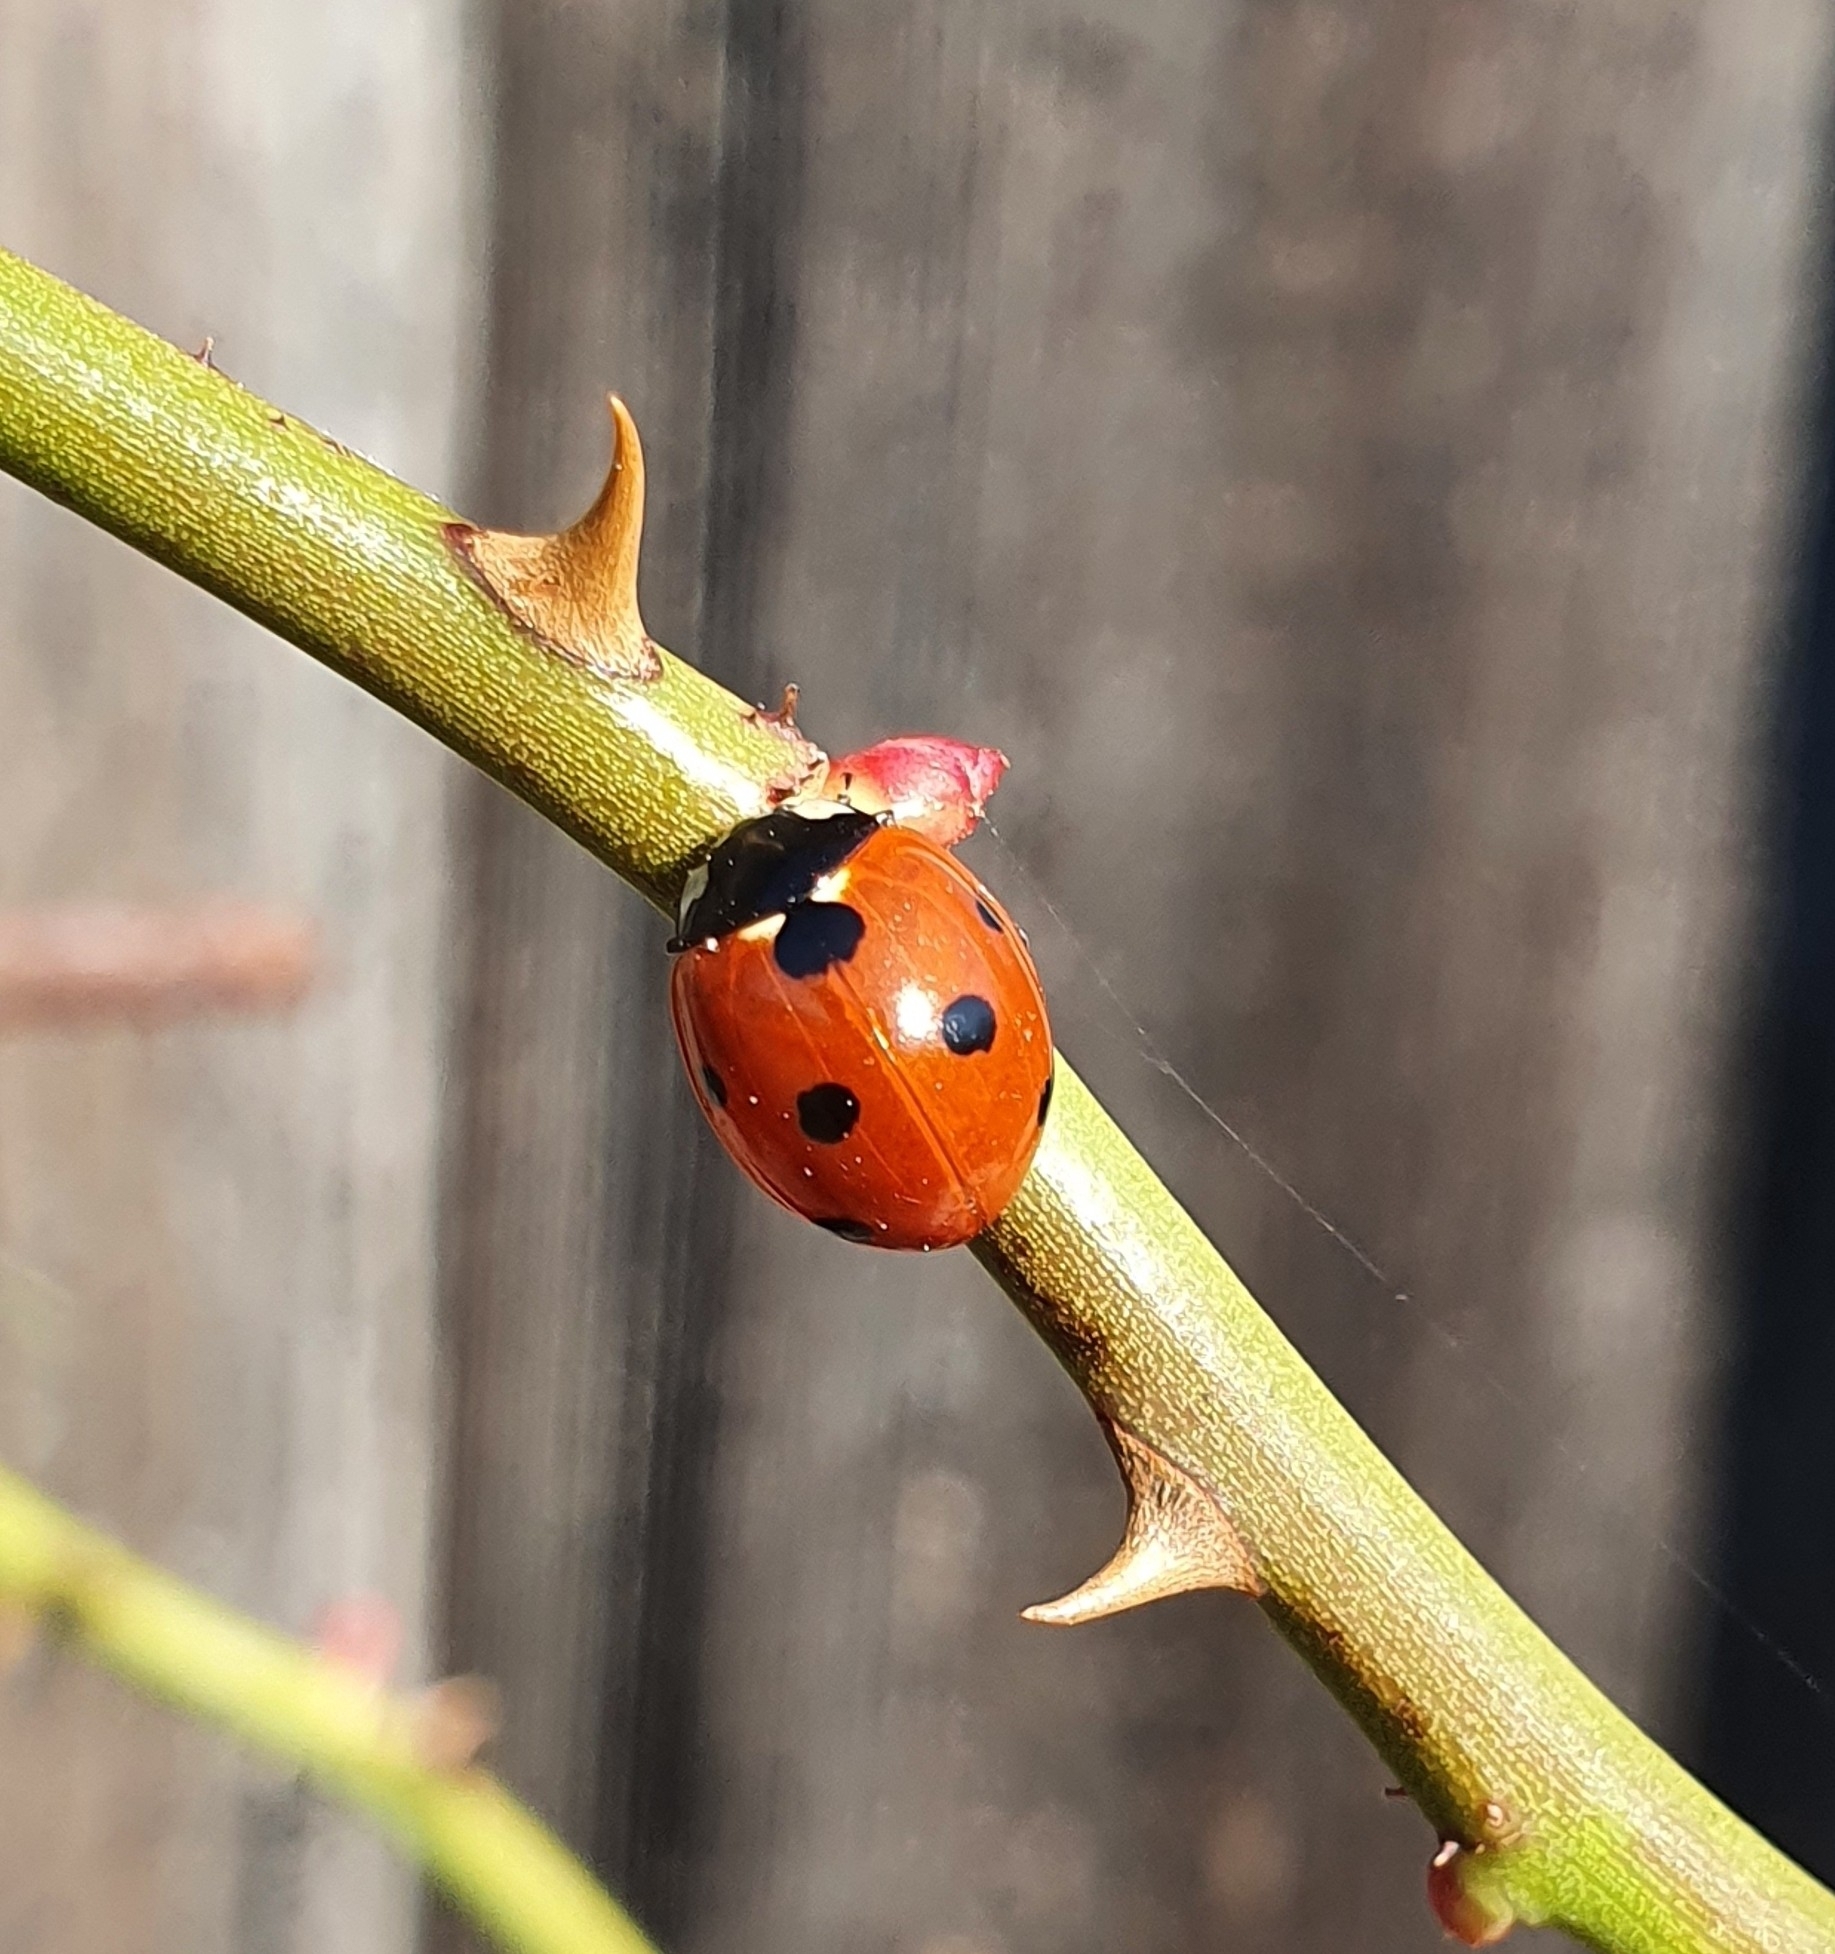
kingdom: Animalia
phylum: Arthropoda
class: Insecta
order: Coleoptera
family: Coccinellidae
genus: Coccinella
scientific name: Coccinella septempunctata
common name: Sevenspotted lady beetle
